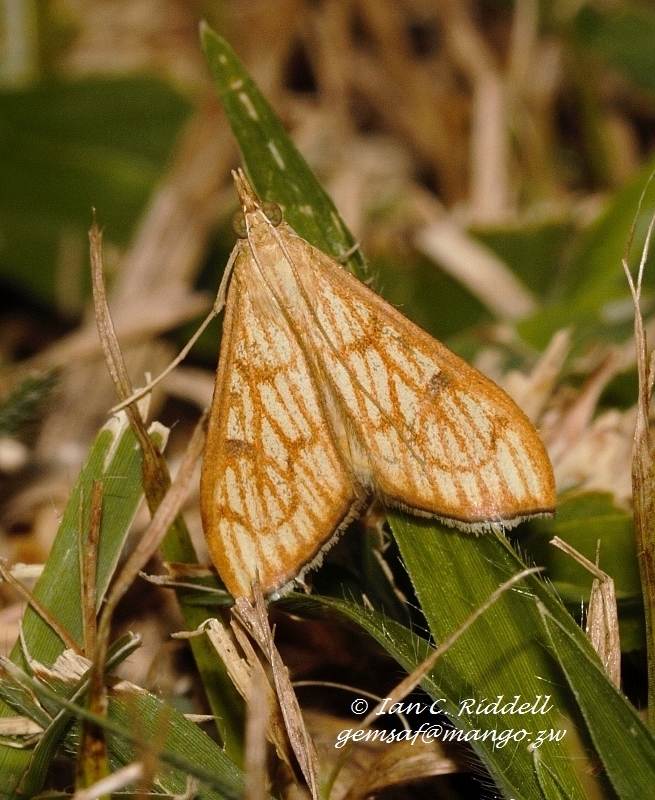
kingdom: Animalia
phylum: Arthropoda
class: Insecta
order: Lepidoptera
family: Crambidae
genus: Antigastra
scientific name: Antigastra catalaunalis
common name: Spanish dot
